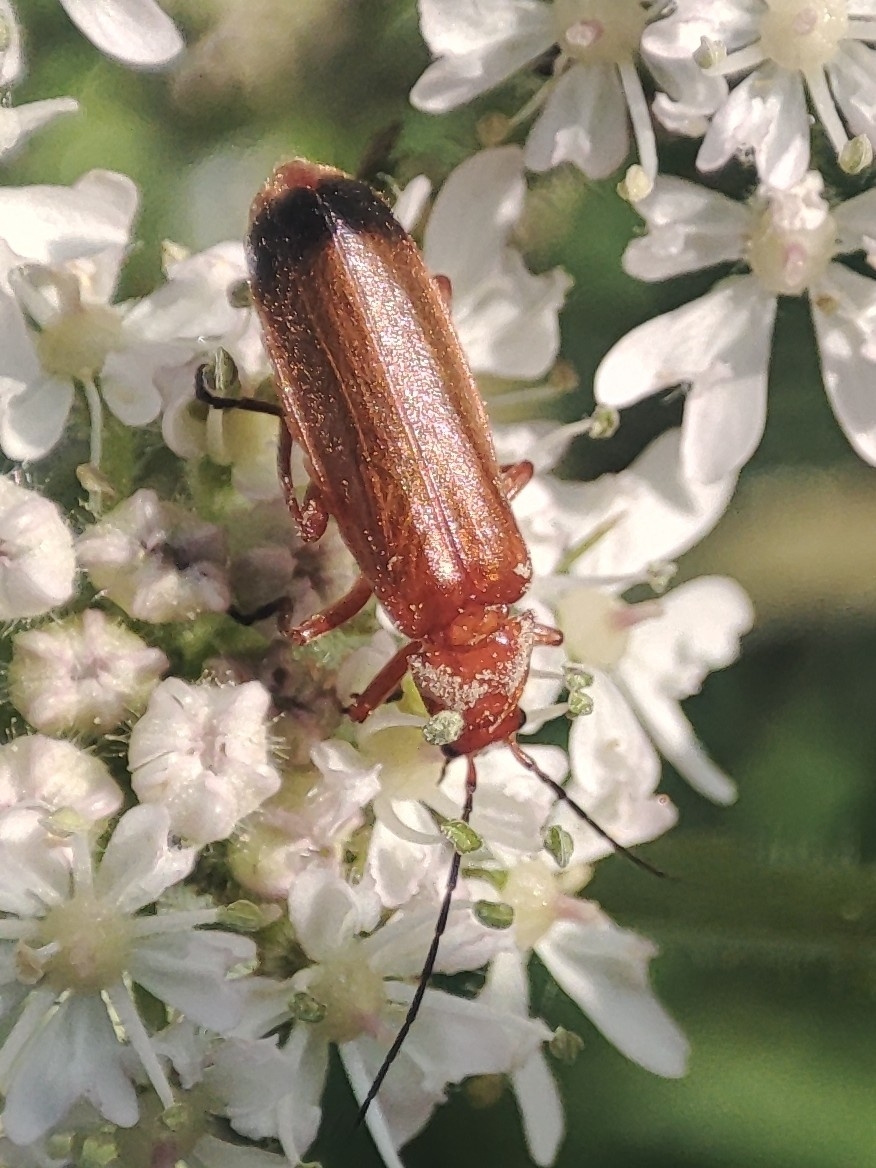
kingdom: Animalia
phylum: Arthropoda
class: Insecta
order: Coleoptera
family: Cantharidae
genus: Rhagonycha
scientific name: Rhagonycha fulva
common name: Common red soldier beetle
